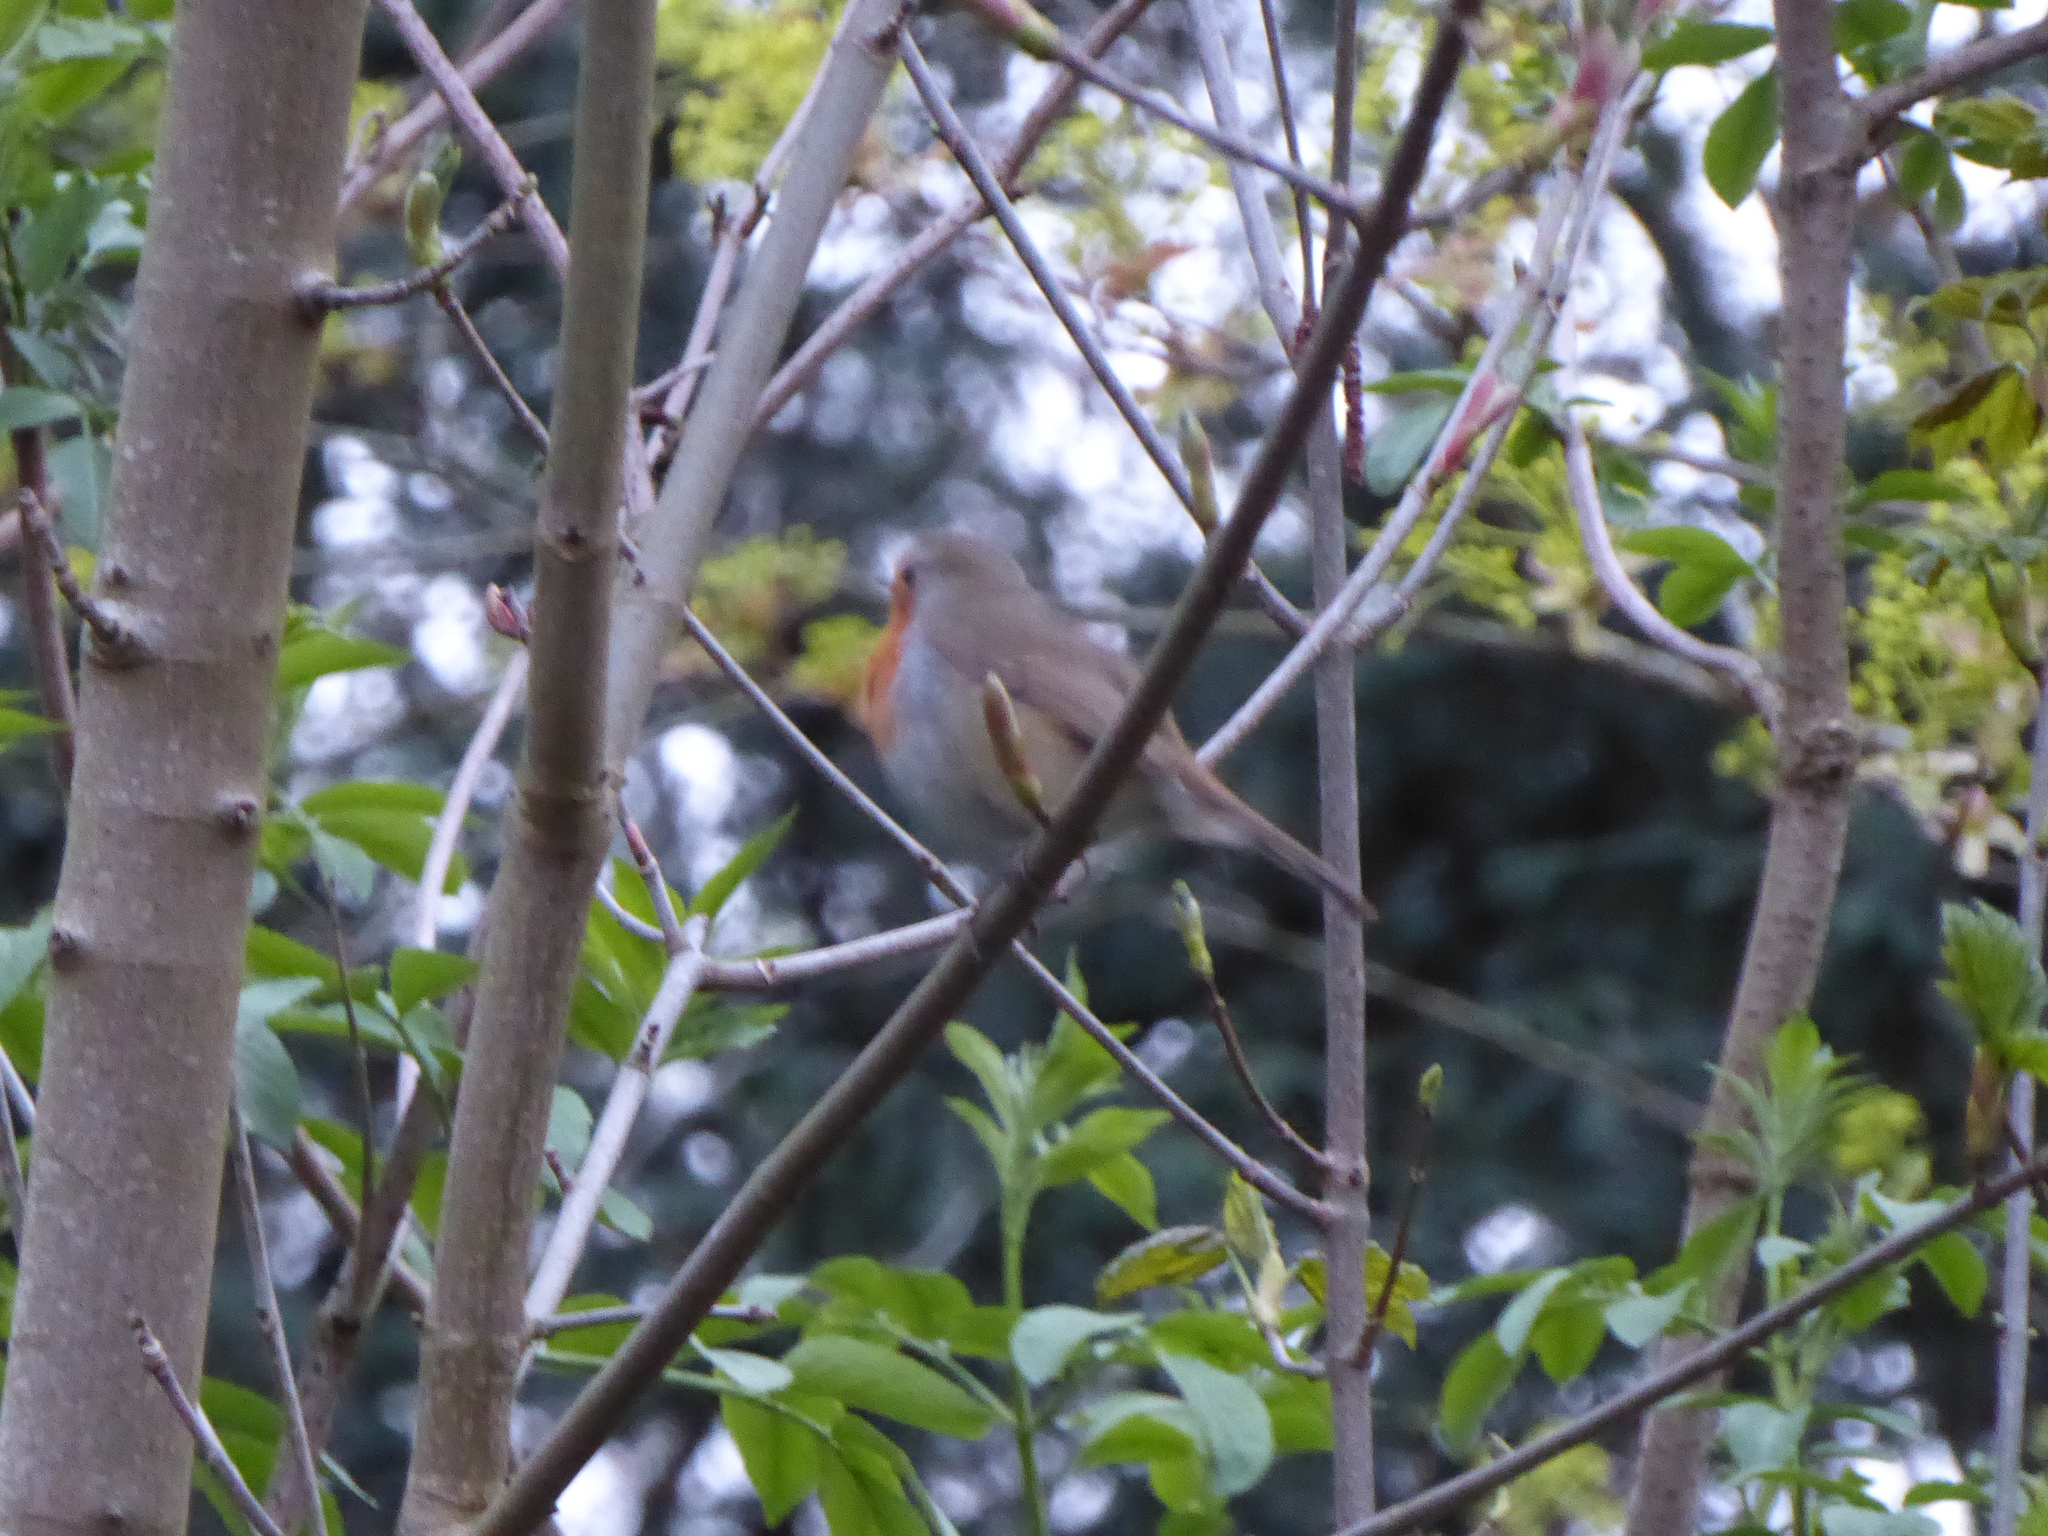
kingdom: Animalia
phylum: Chordata
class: Aves
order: Passeriformes
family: Muscicapidae
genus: Erithacus
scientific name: Erithacus rubecula
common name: European robin
